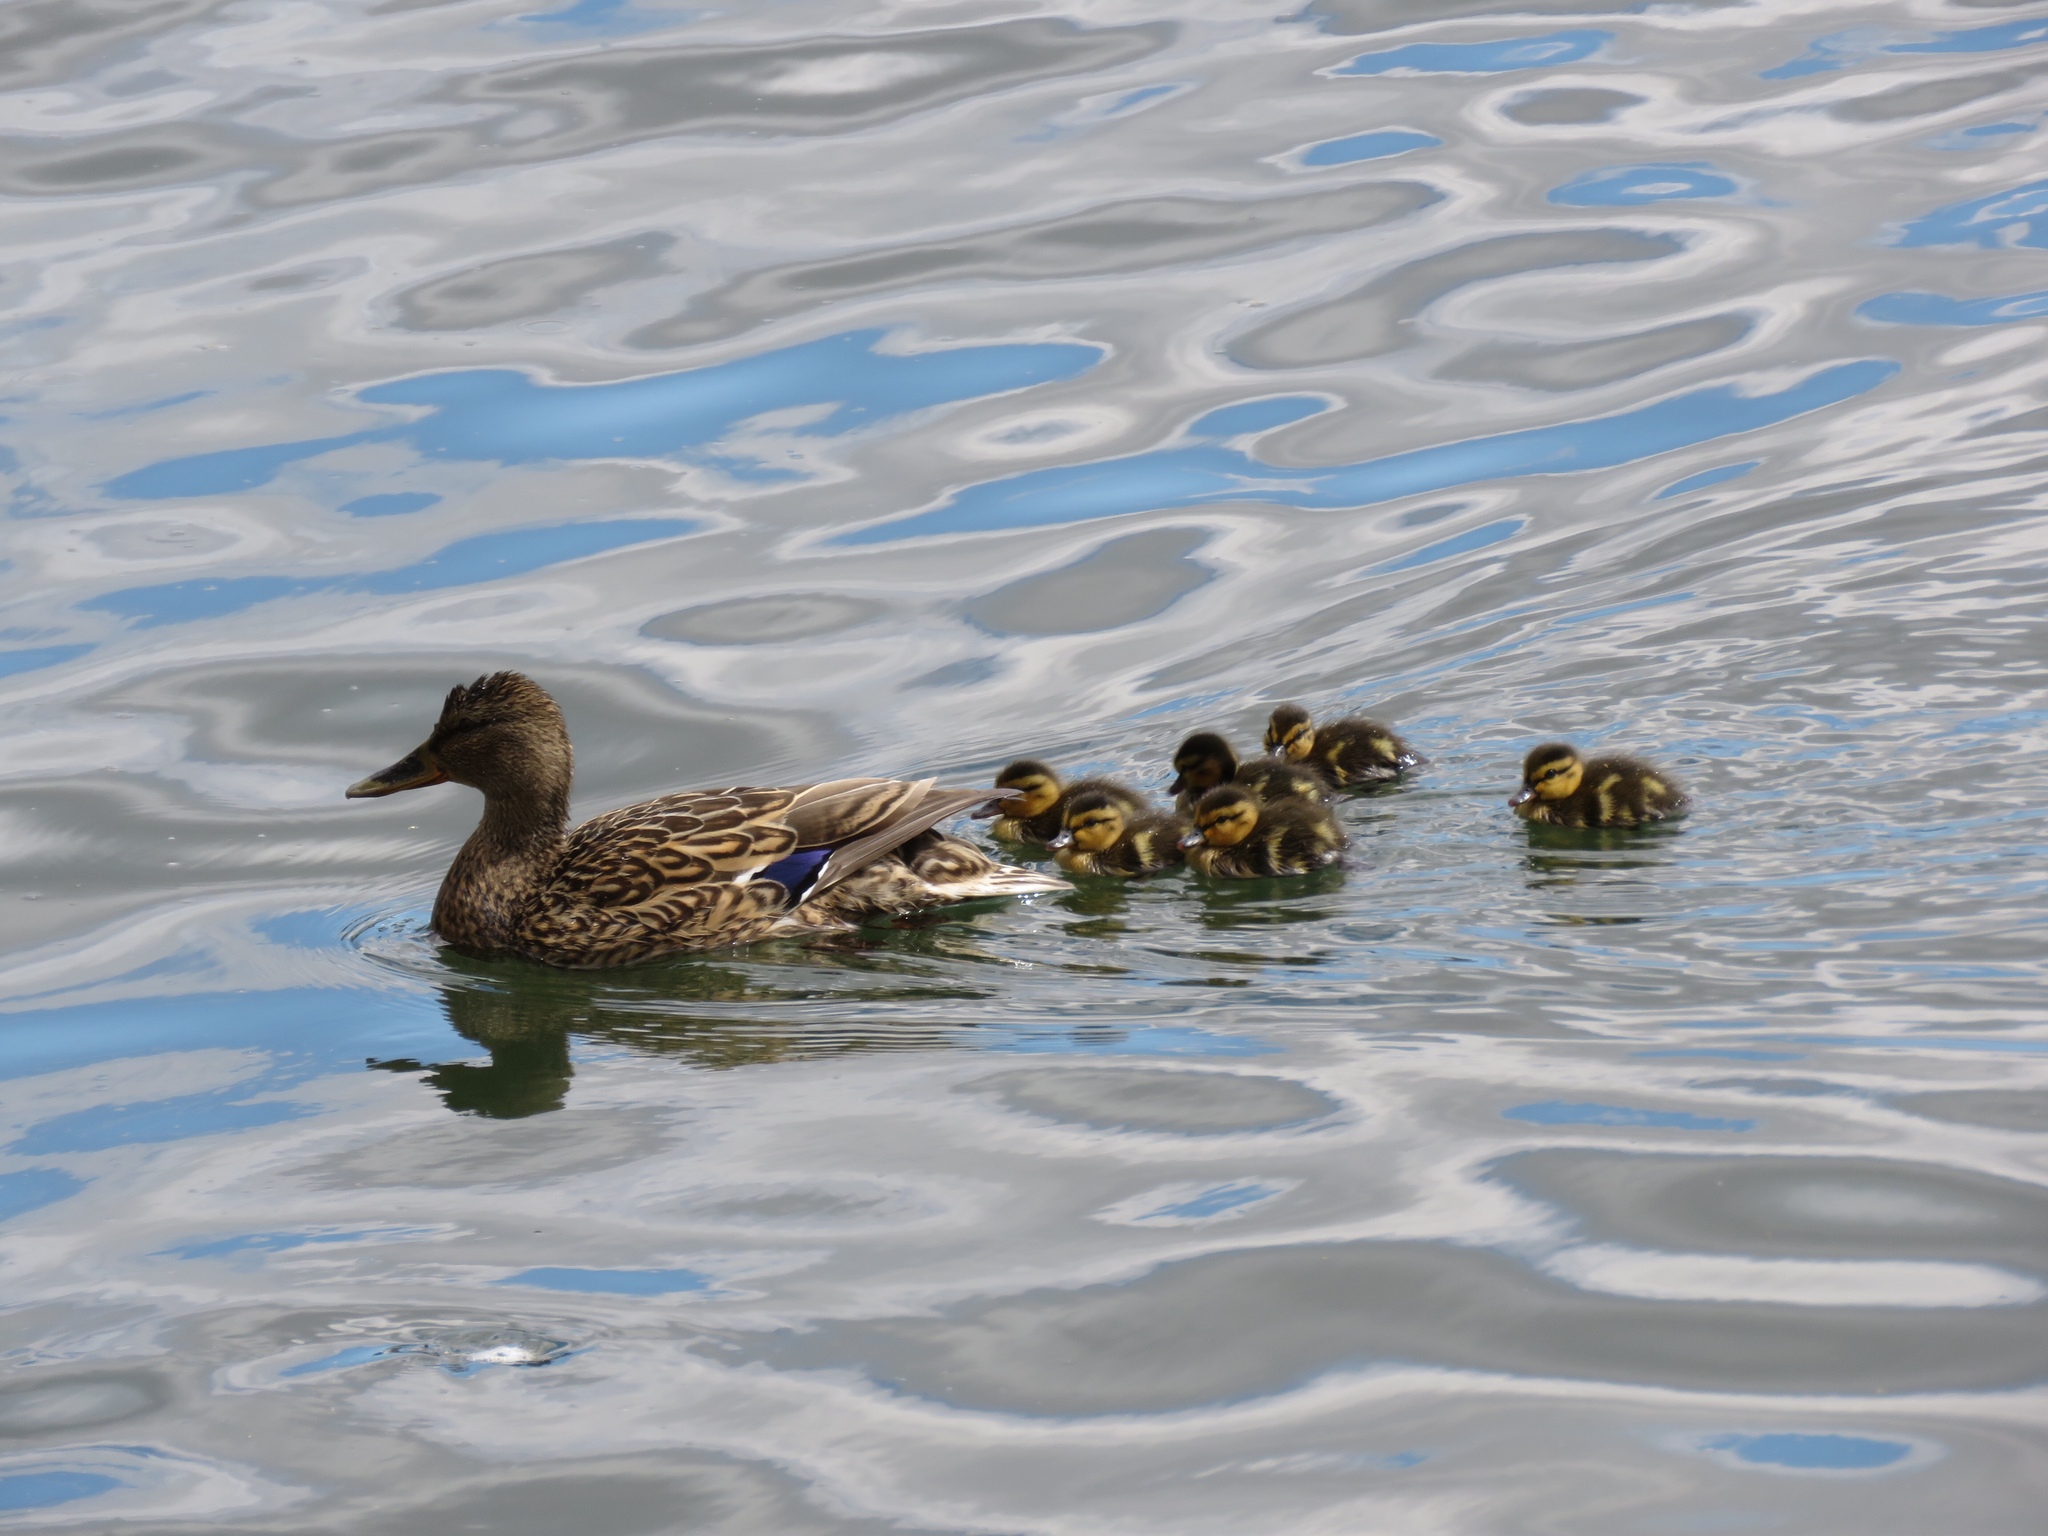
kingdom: Animalia
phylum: Chordata
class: Aves
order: Anseriformes
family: Anatidae
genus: Anas
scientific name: Anas platyrhynchos
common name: Mallard
